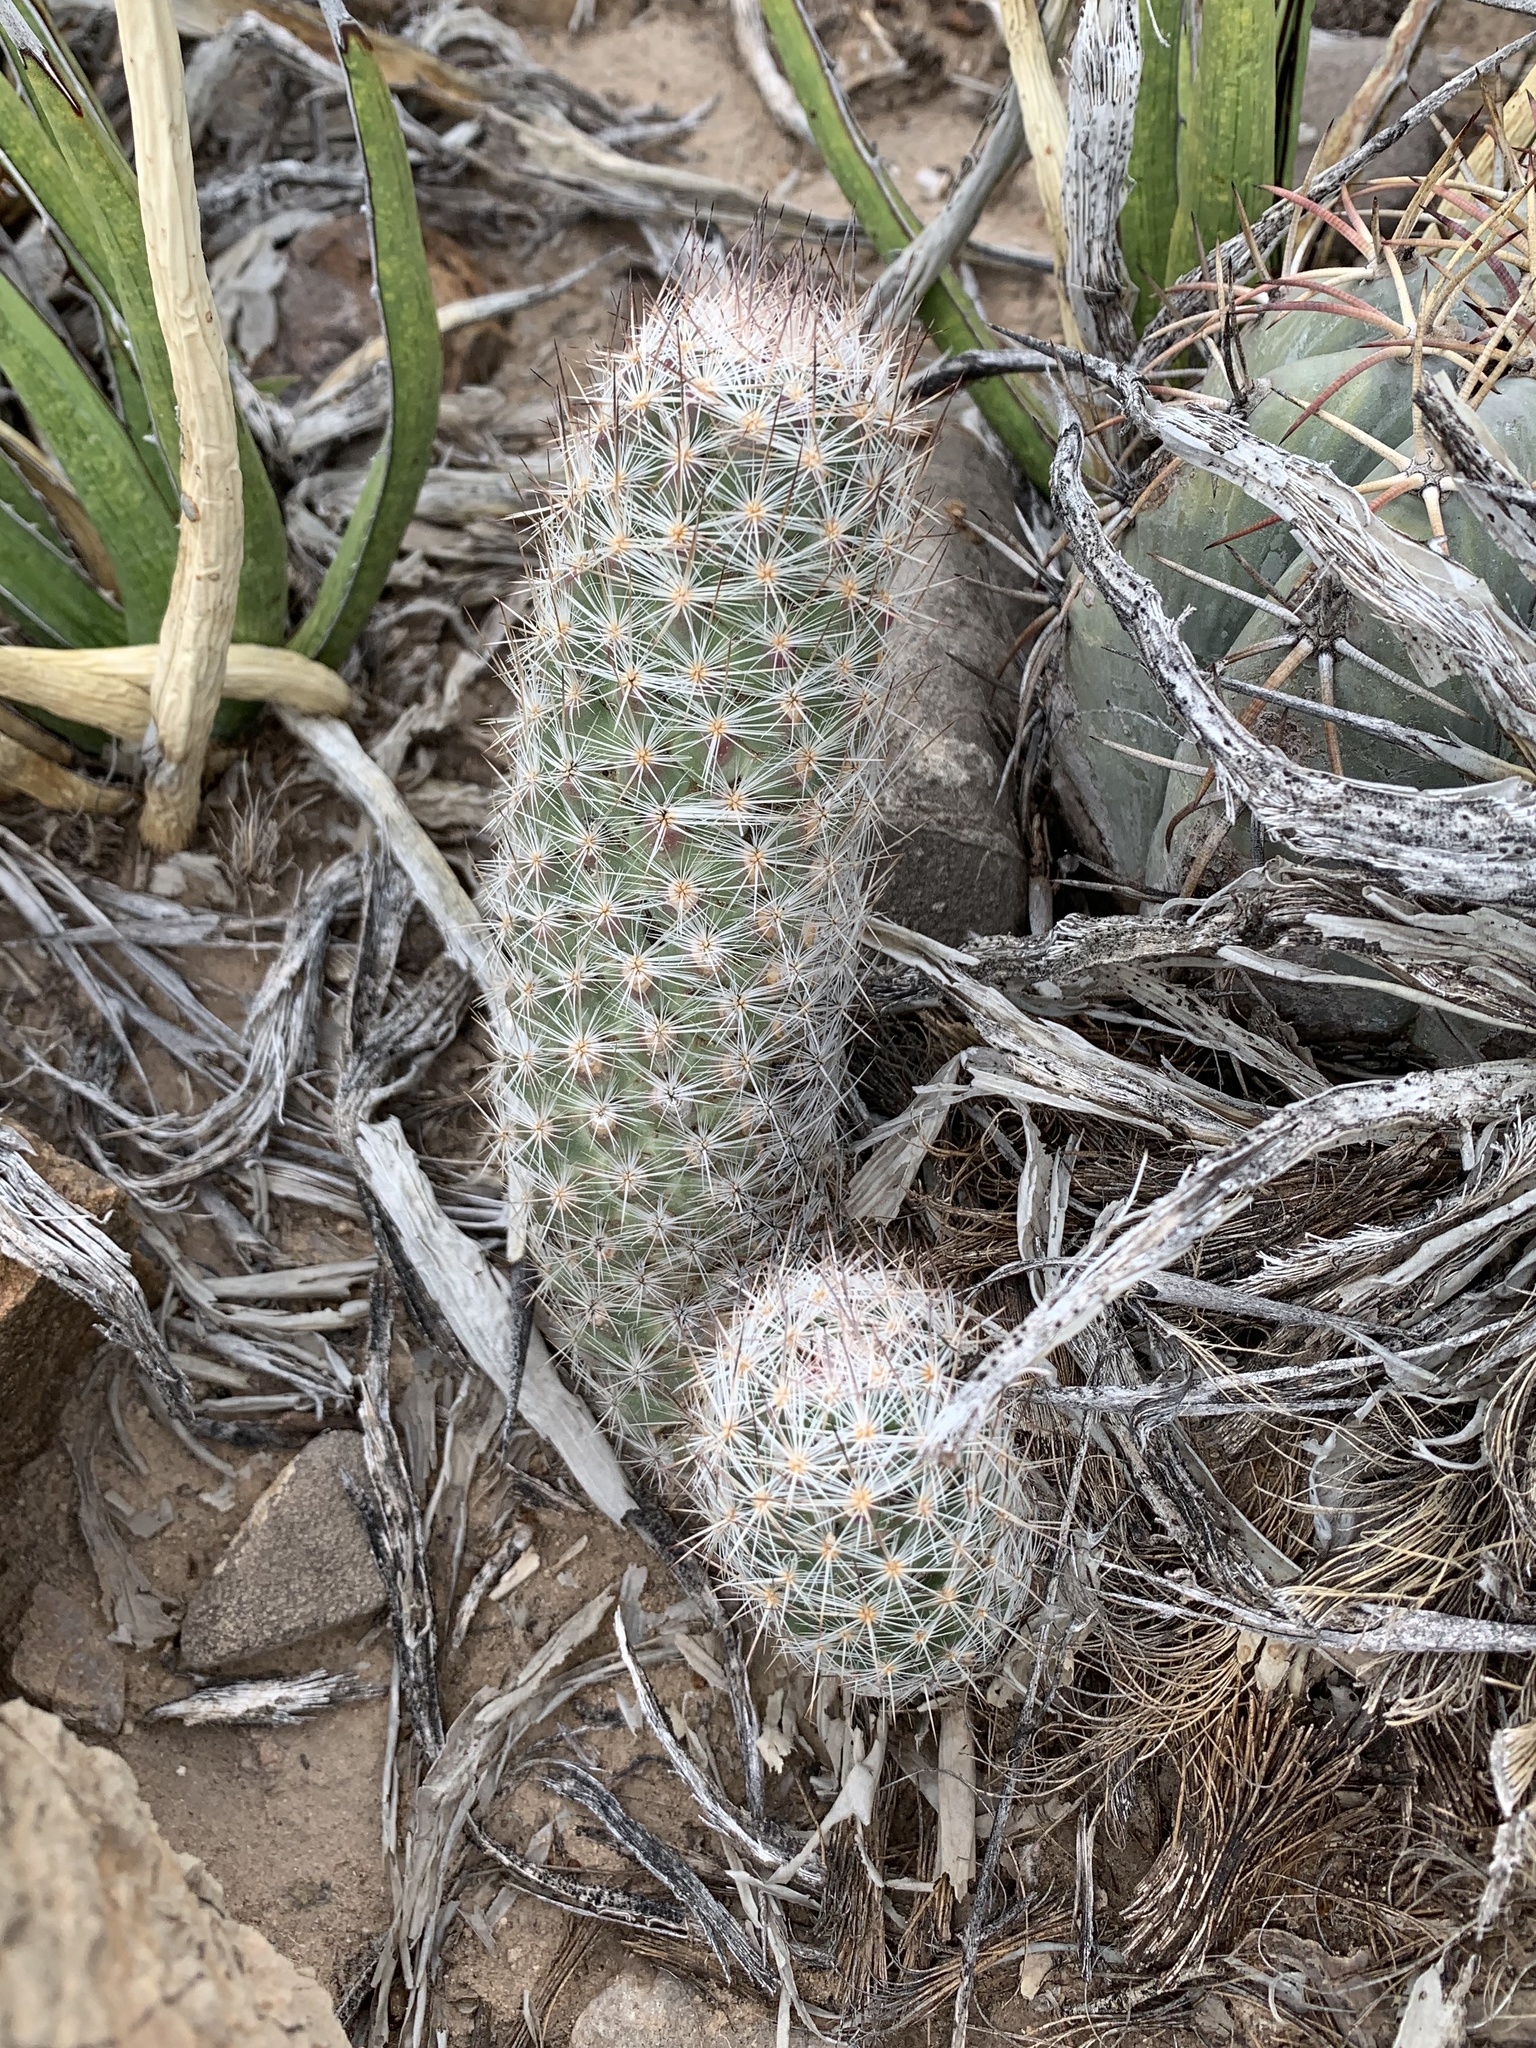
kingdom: Plantae
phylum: Tracheophyta
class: Magnoliopsida
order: Caryophyllales
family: Cactaceae
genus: Pelecyphora
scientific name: Pelecyphora tuberculosa
